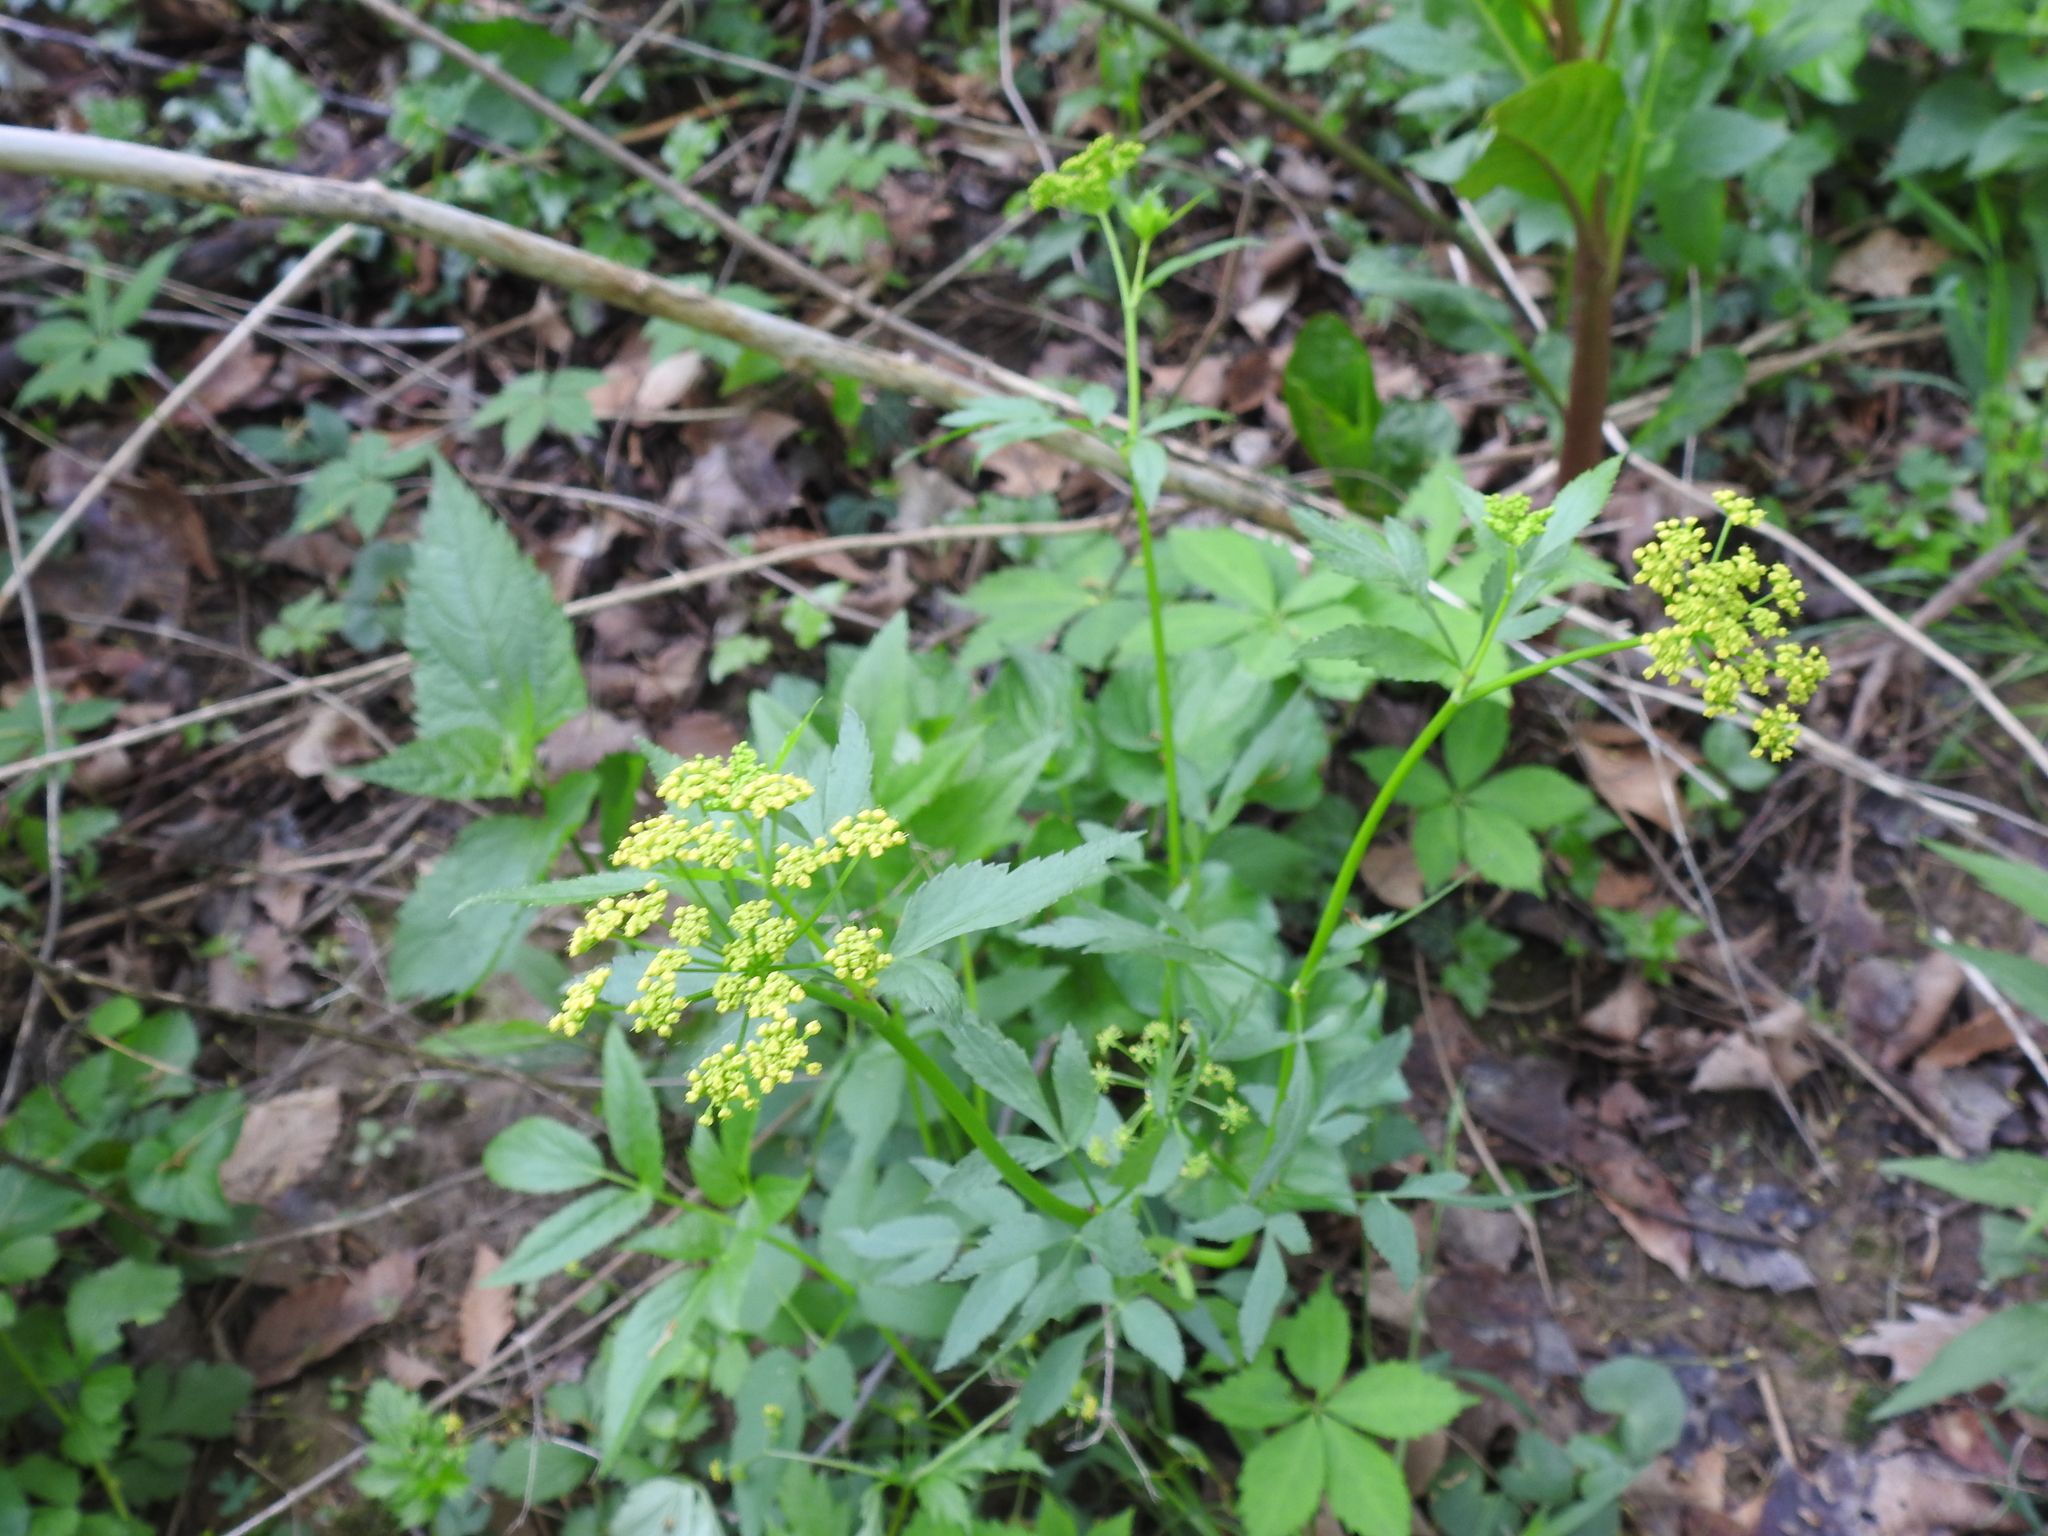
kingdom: Plantae
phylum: Tracheophyta
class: Magnoliopsida
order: Apiales
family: Apiaceae
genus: Zizia
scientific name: Zizia aurea
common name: Golden alexanders
